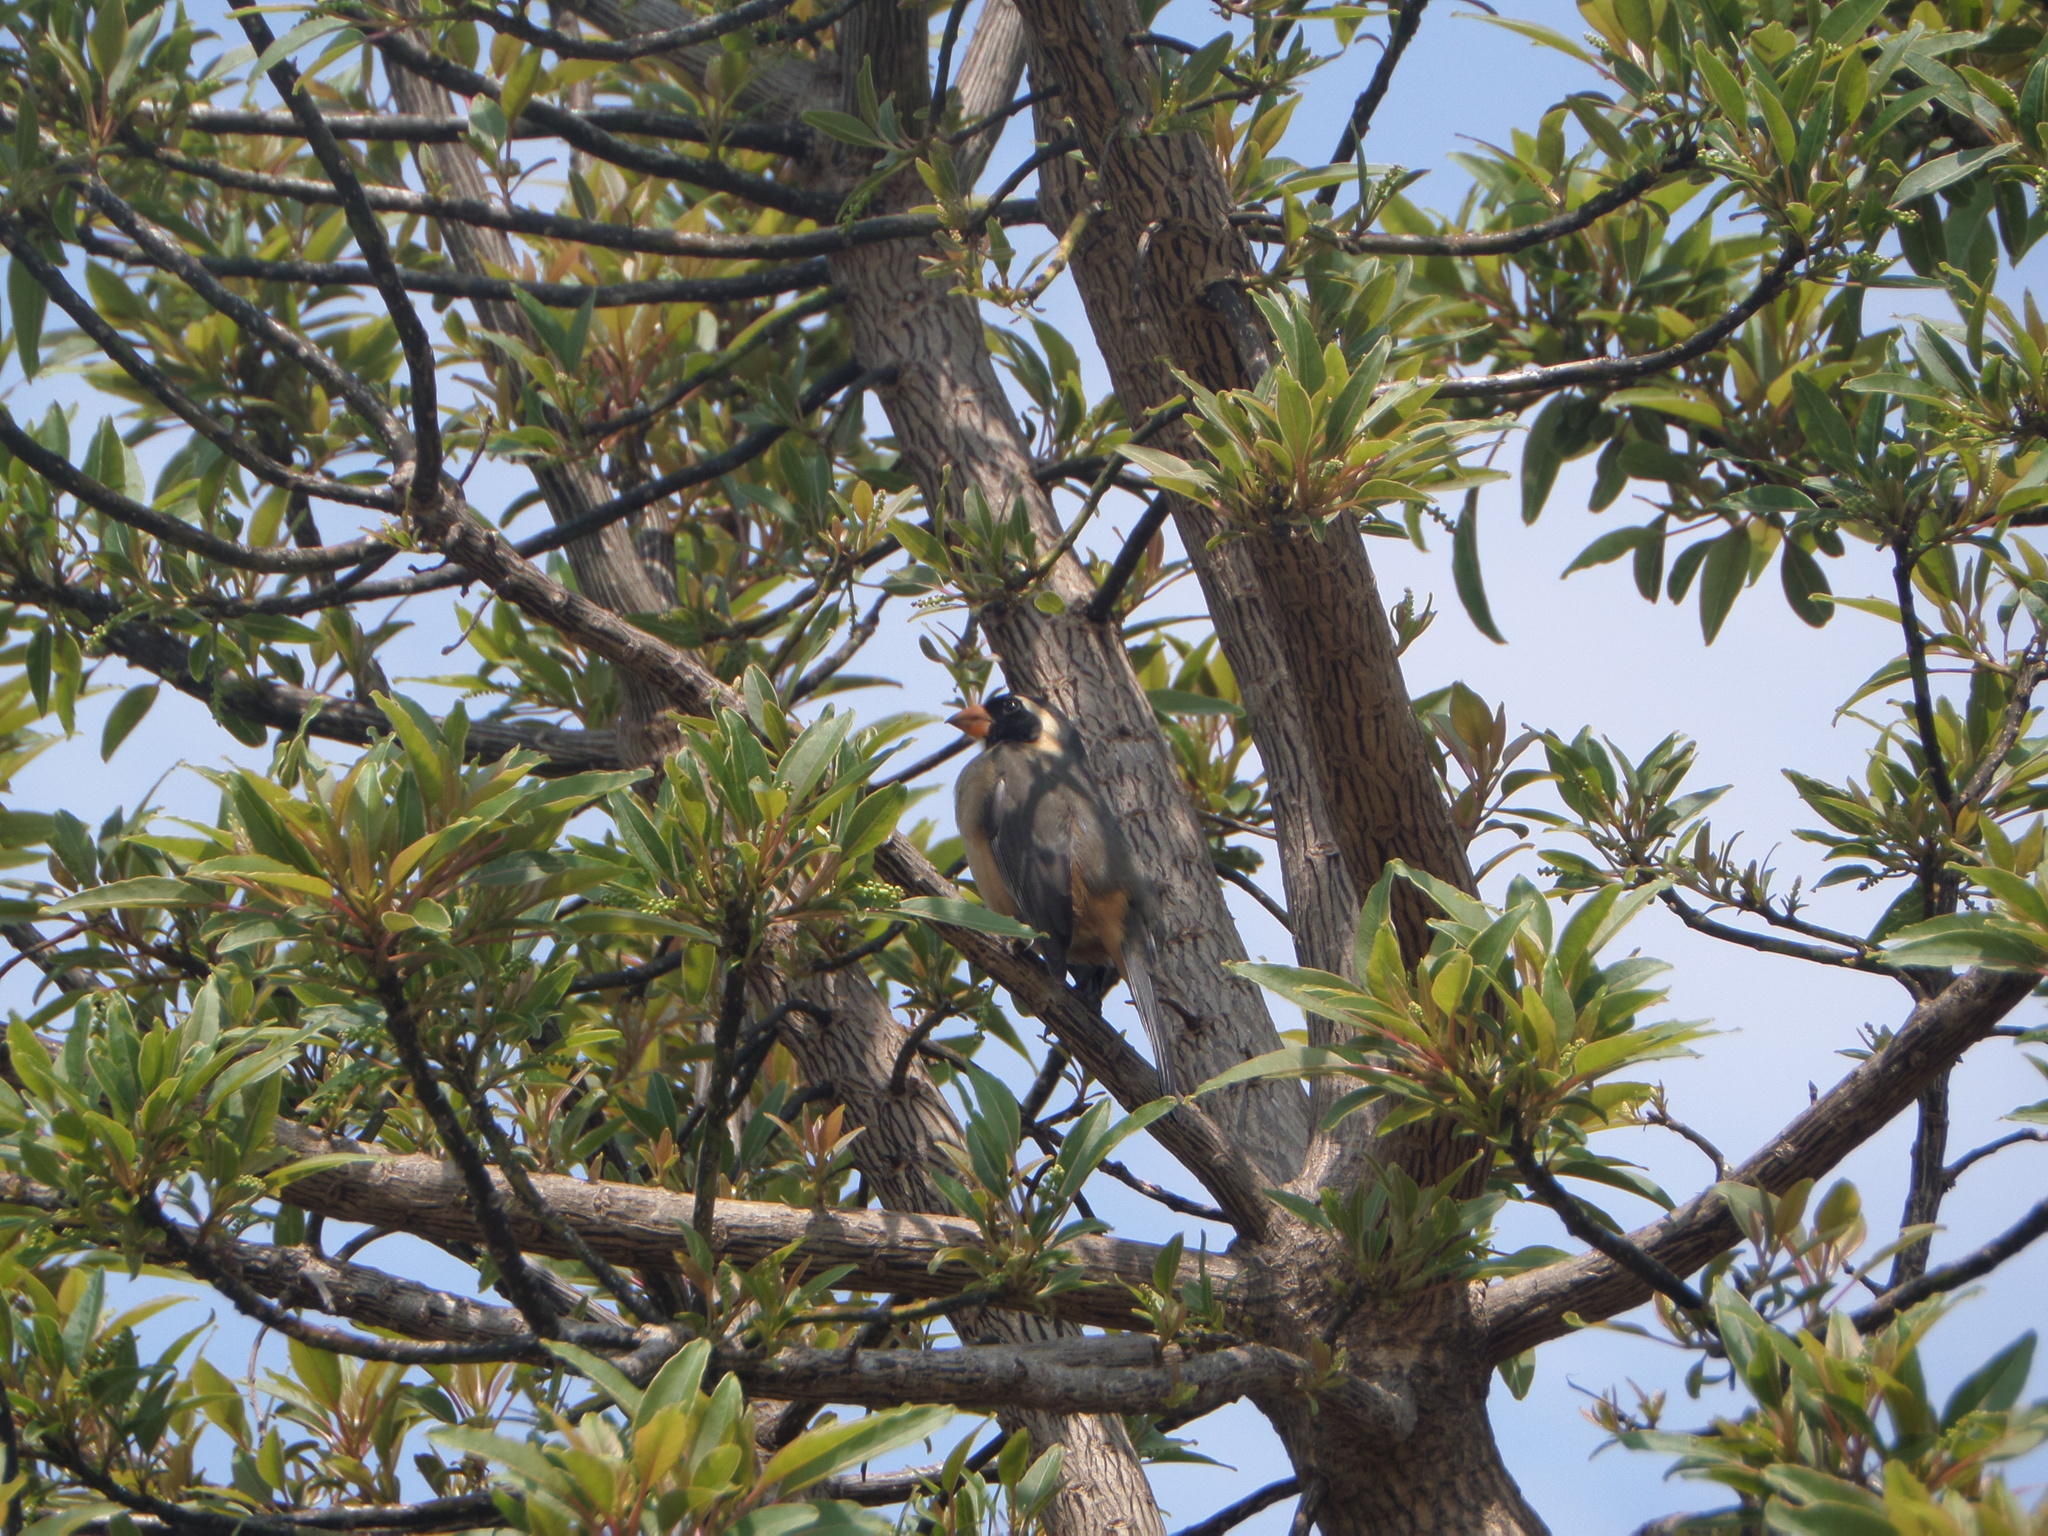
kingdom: Animalia
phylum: Chordata
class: Aves
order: Passeriformes
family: Thraupidae
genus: Saltator
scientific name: Saltator aurantiirostris
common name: Golden-billed saltator
